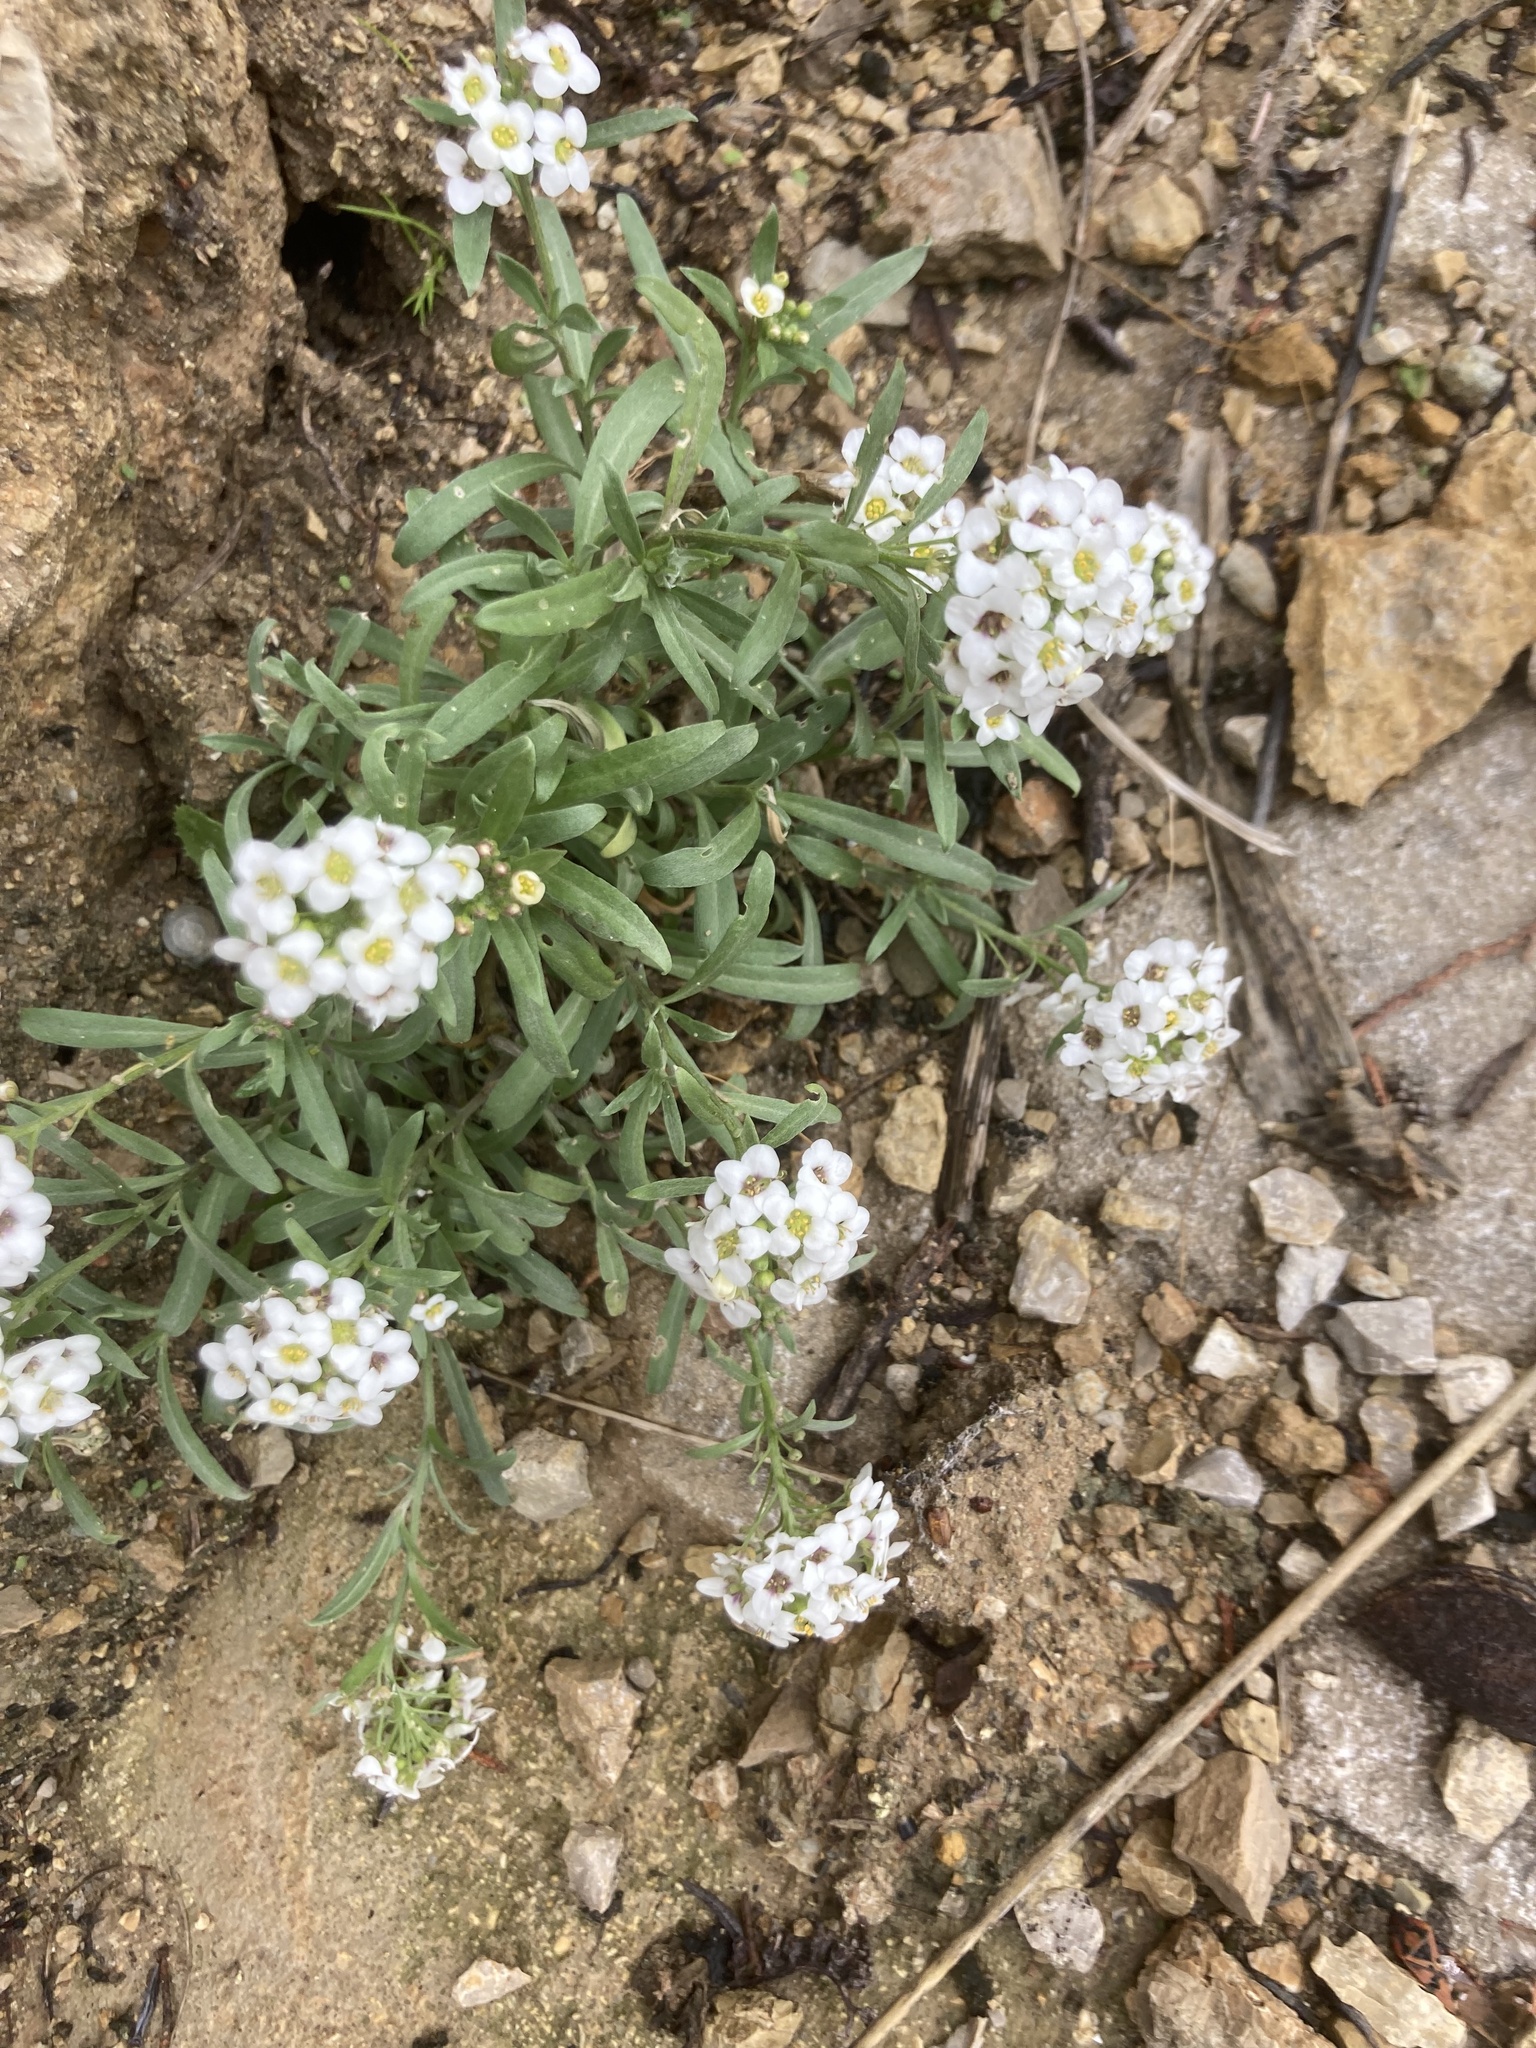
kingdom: Plantae
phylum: Tracheophyta
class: Magnoliopsida
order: Brassicales
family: Brassicaceae
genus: Lobularia
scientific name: Lobularia maritima
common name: Sweet alison
